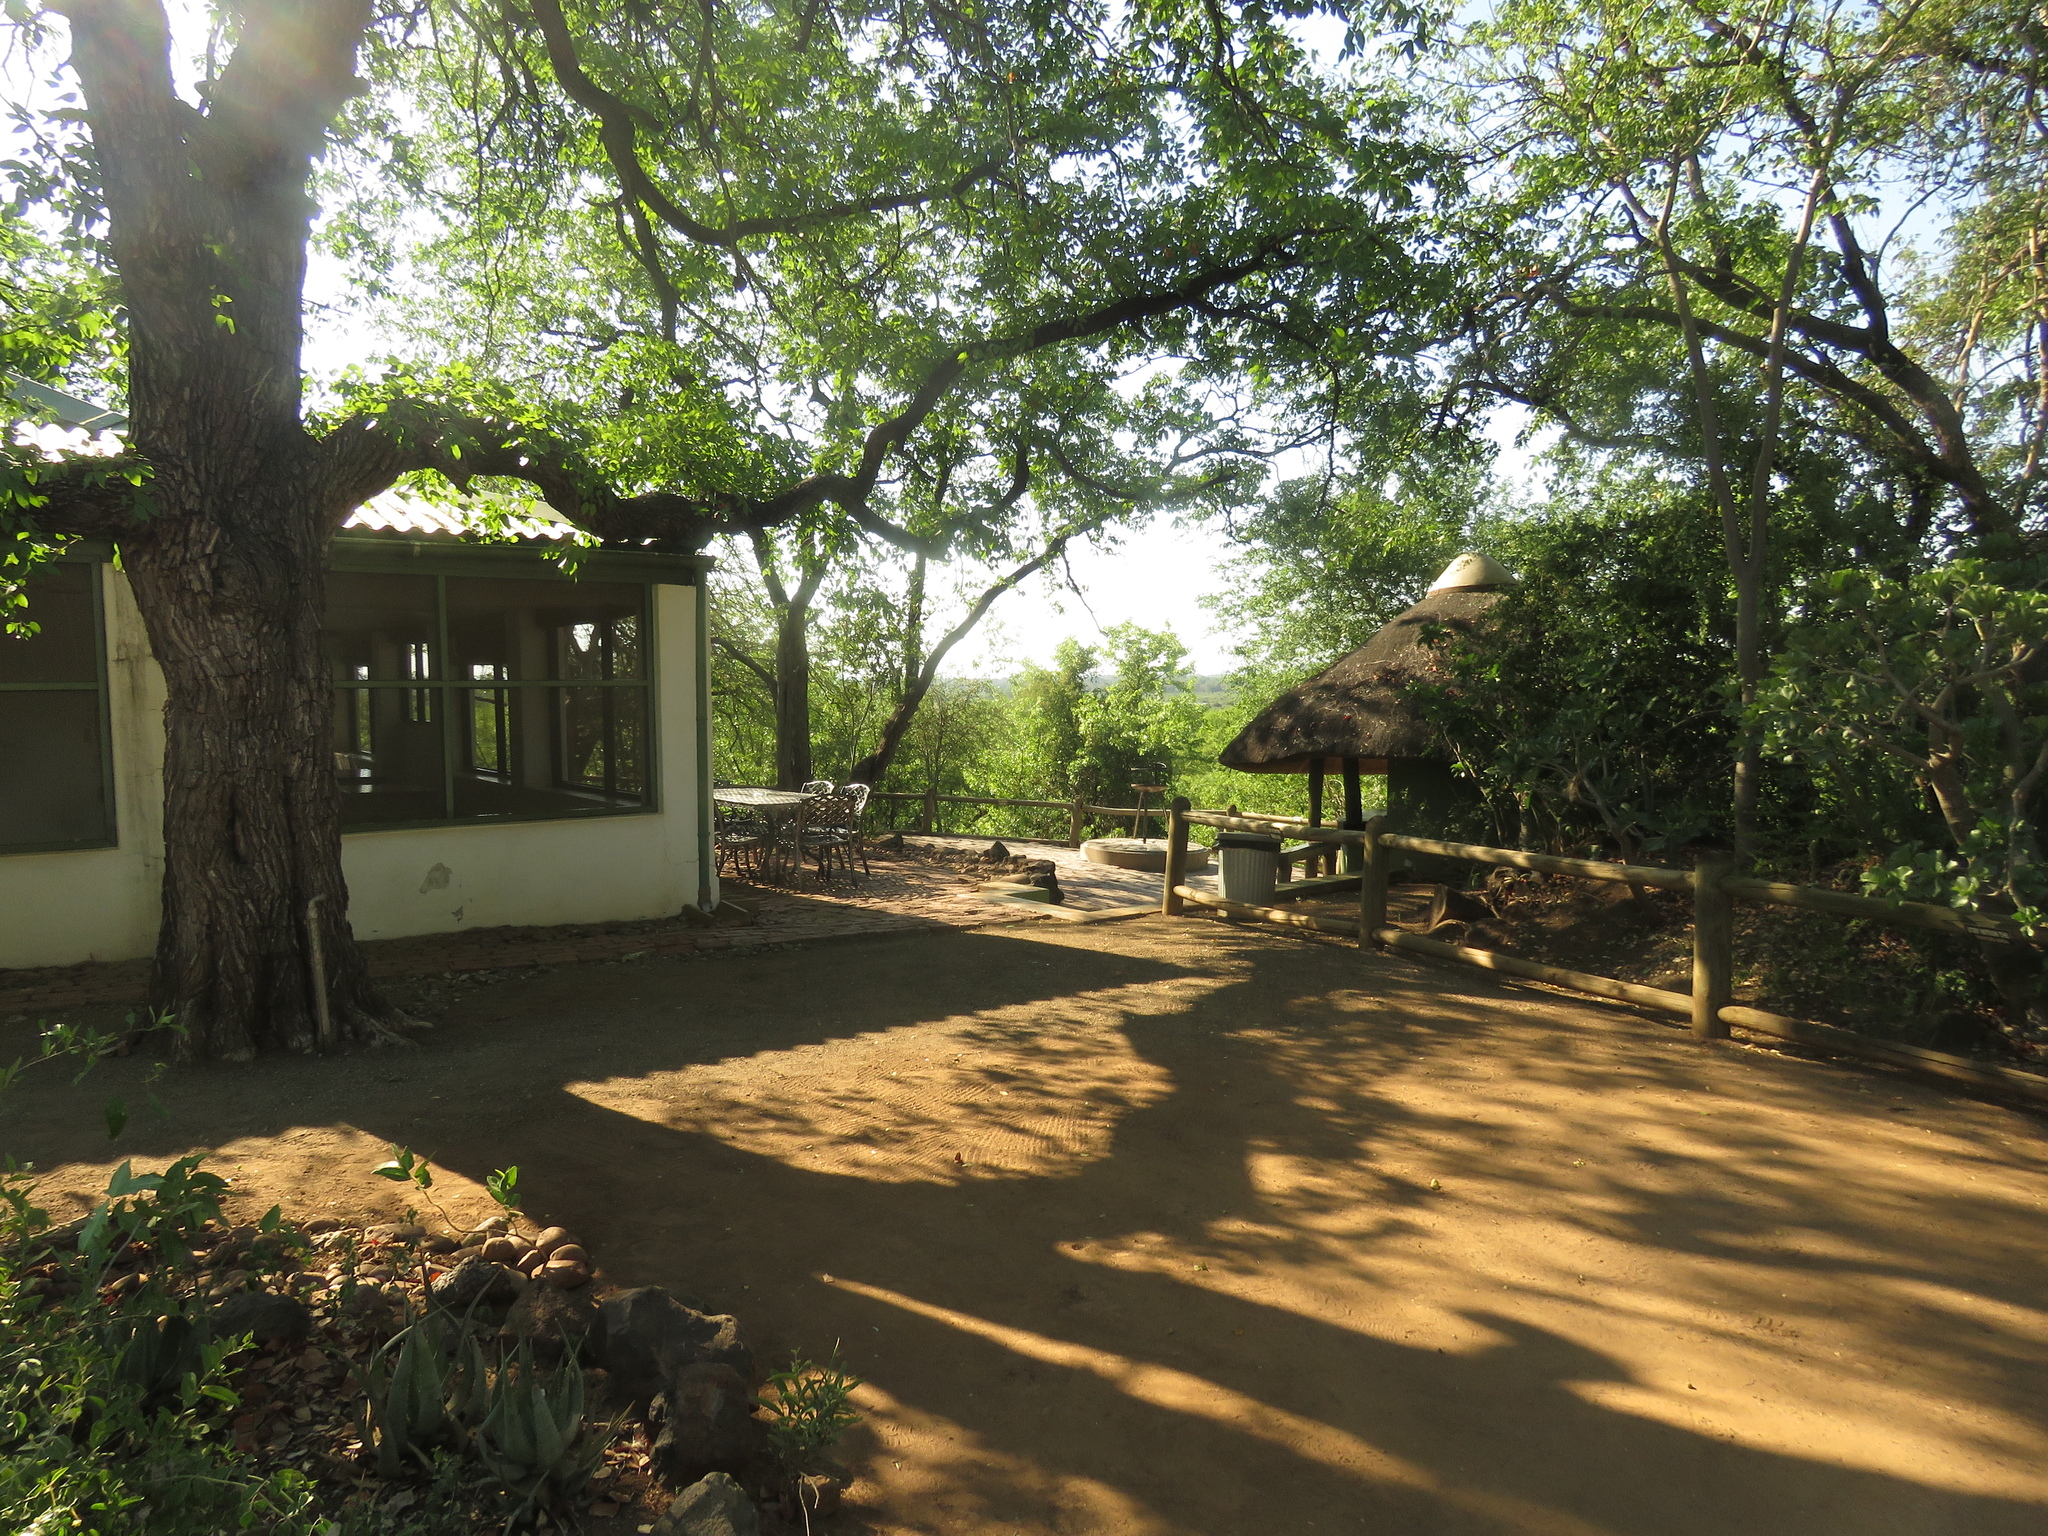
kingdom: Plantae
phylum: Tracheophyta
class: Magnoliopsida
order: Fabales
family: Fabaceae
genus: Colophospermum
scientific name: Colophospermum mopane
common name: Mopane
